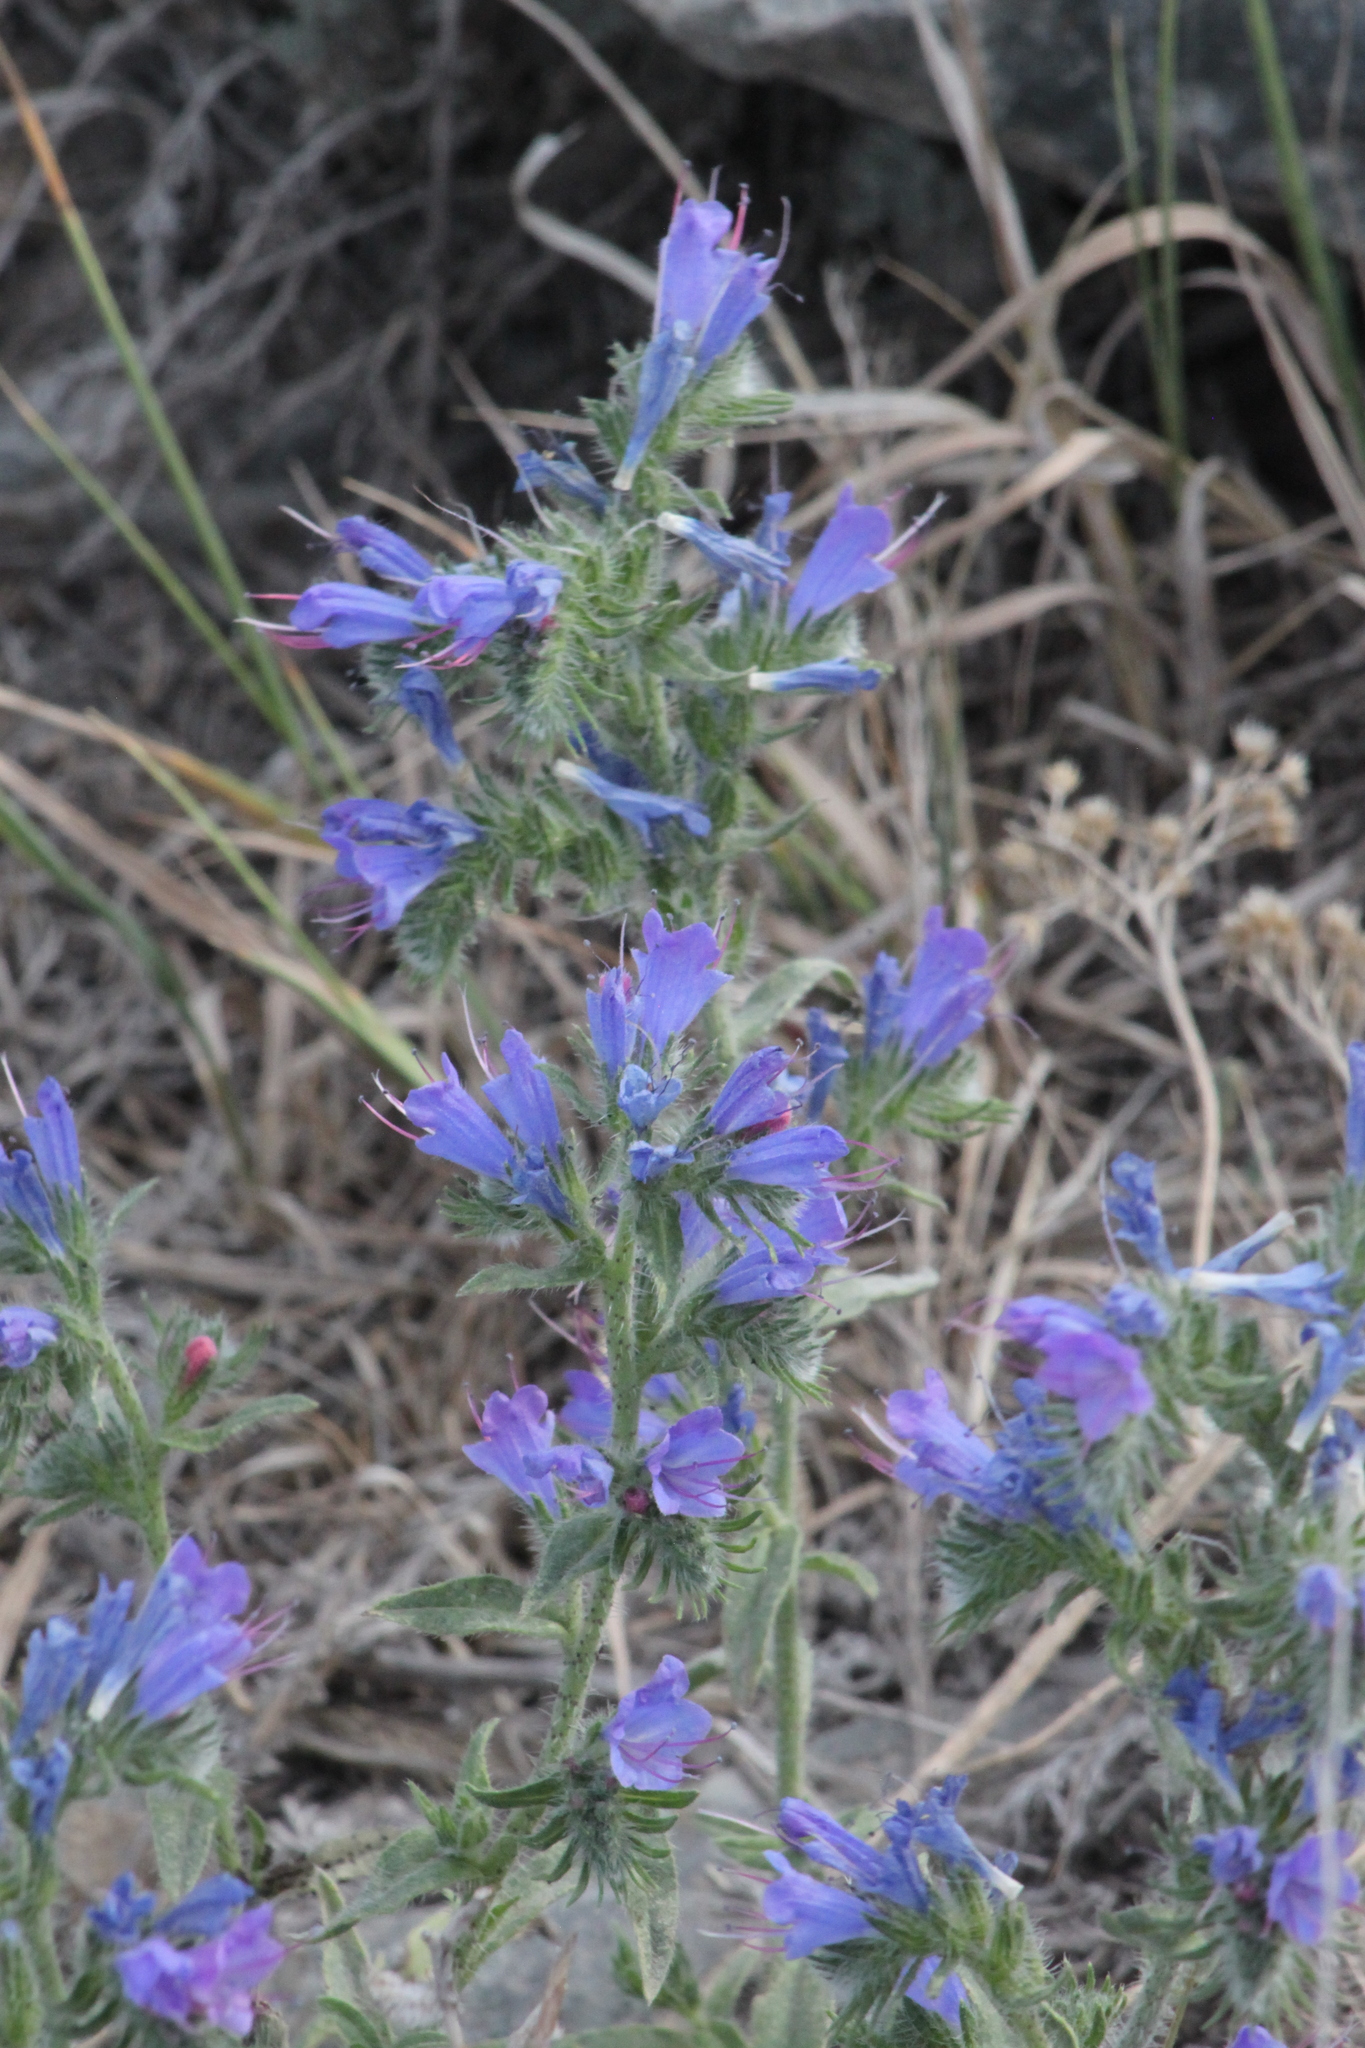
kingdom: Plantae
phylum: Tracheophyta
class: Magnoliopsida
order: Boraginales
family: Boraginaceae
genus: Echium
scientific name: Echium vulgare
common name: Common viper's bugloss
